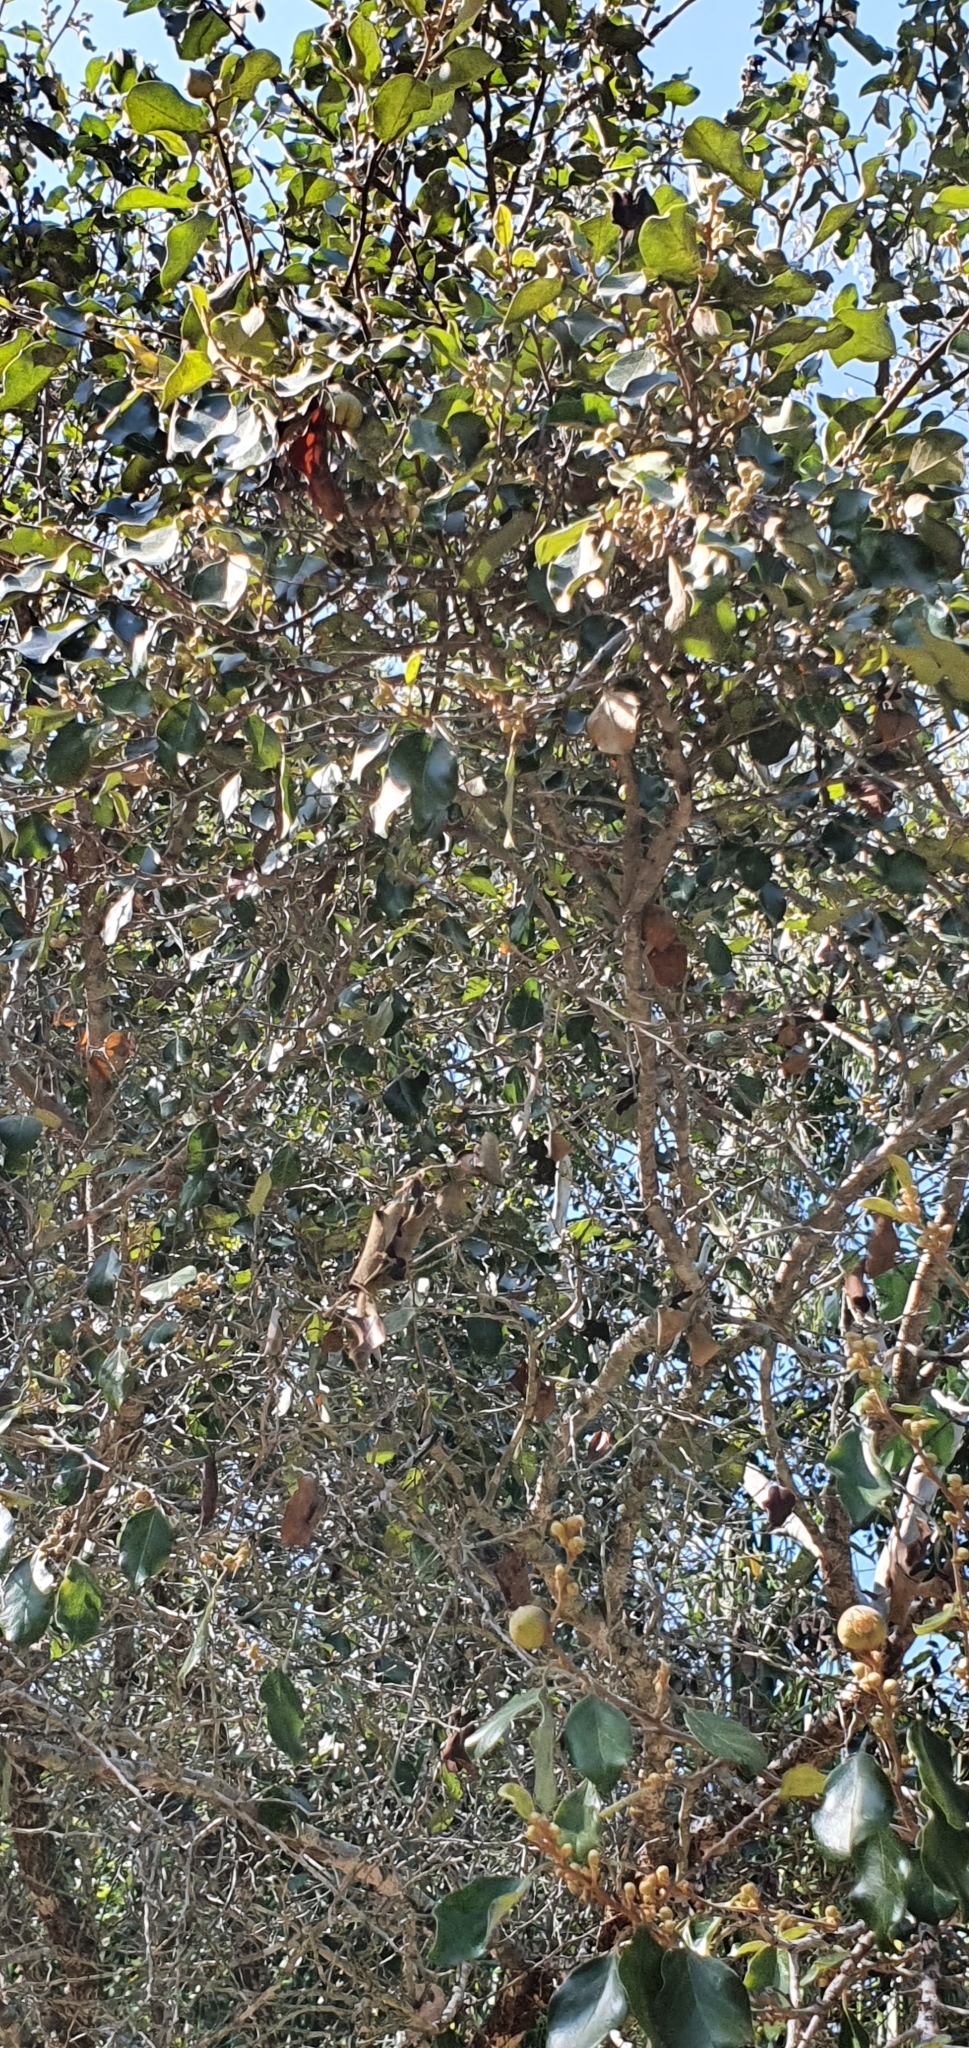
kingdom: Plantae
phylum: Tracheophyta
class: Magnoliopsida
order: Malpighiales
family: Picrodendraceae
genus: Petalostigma
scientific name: Petalostigma pubescens
